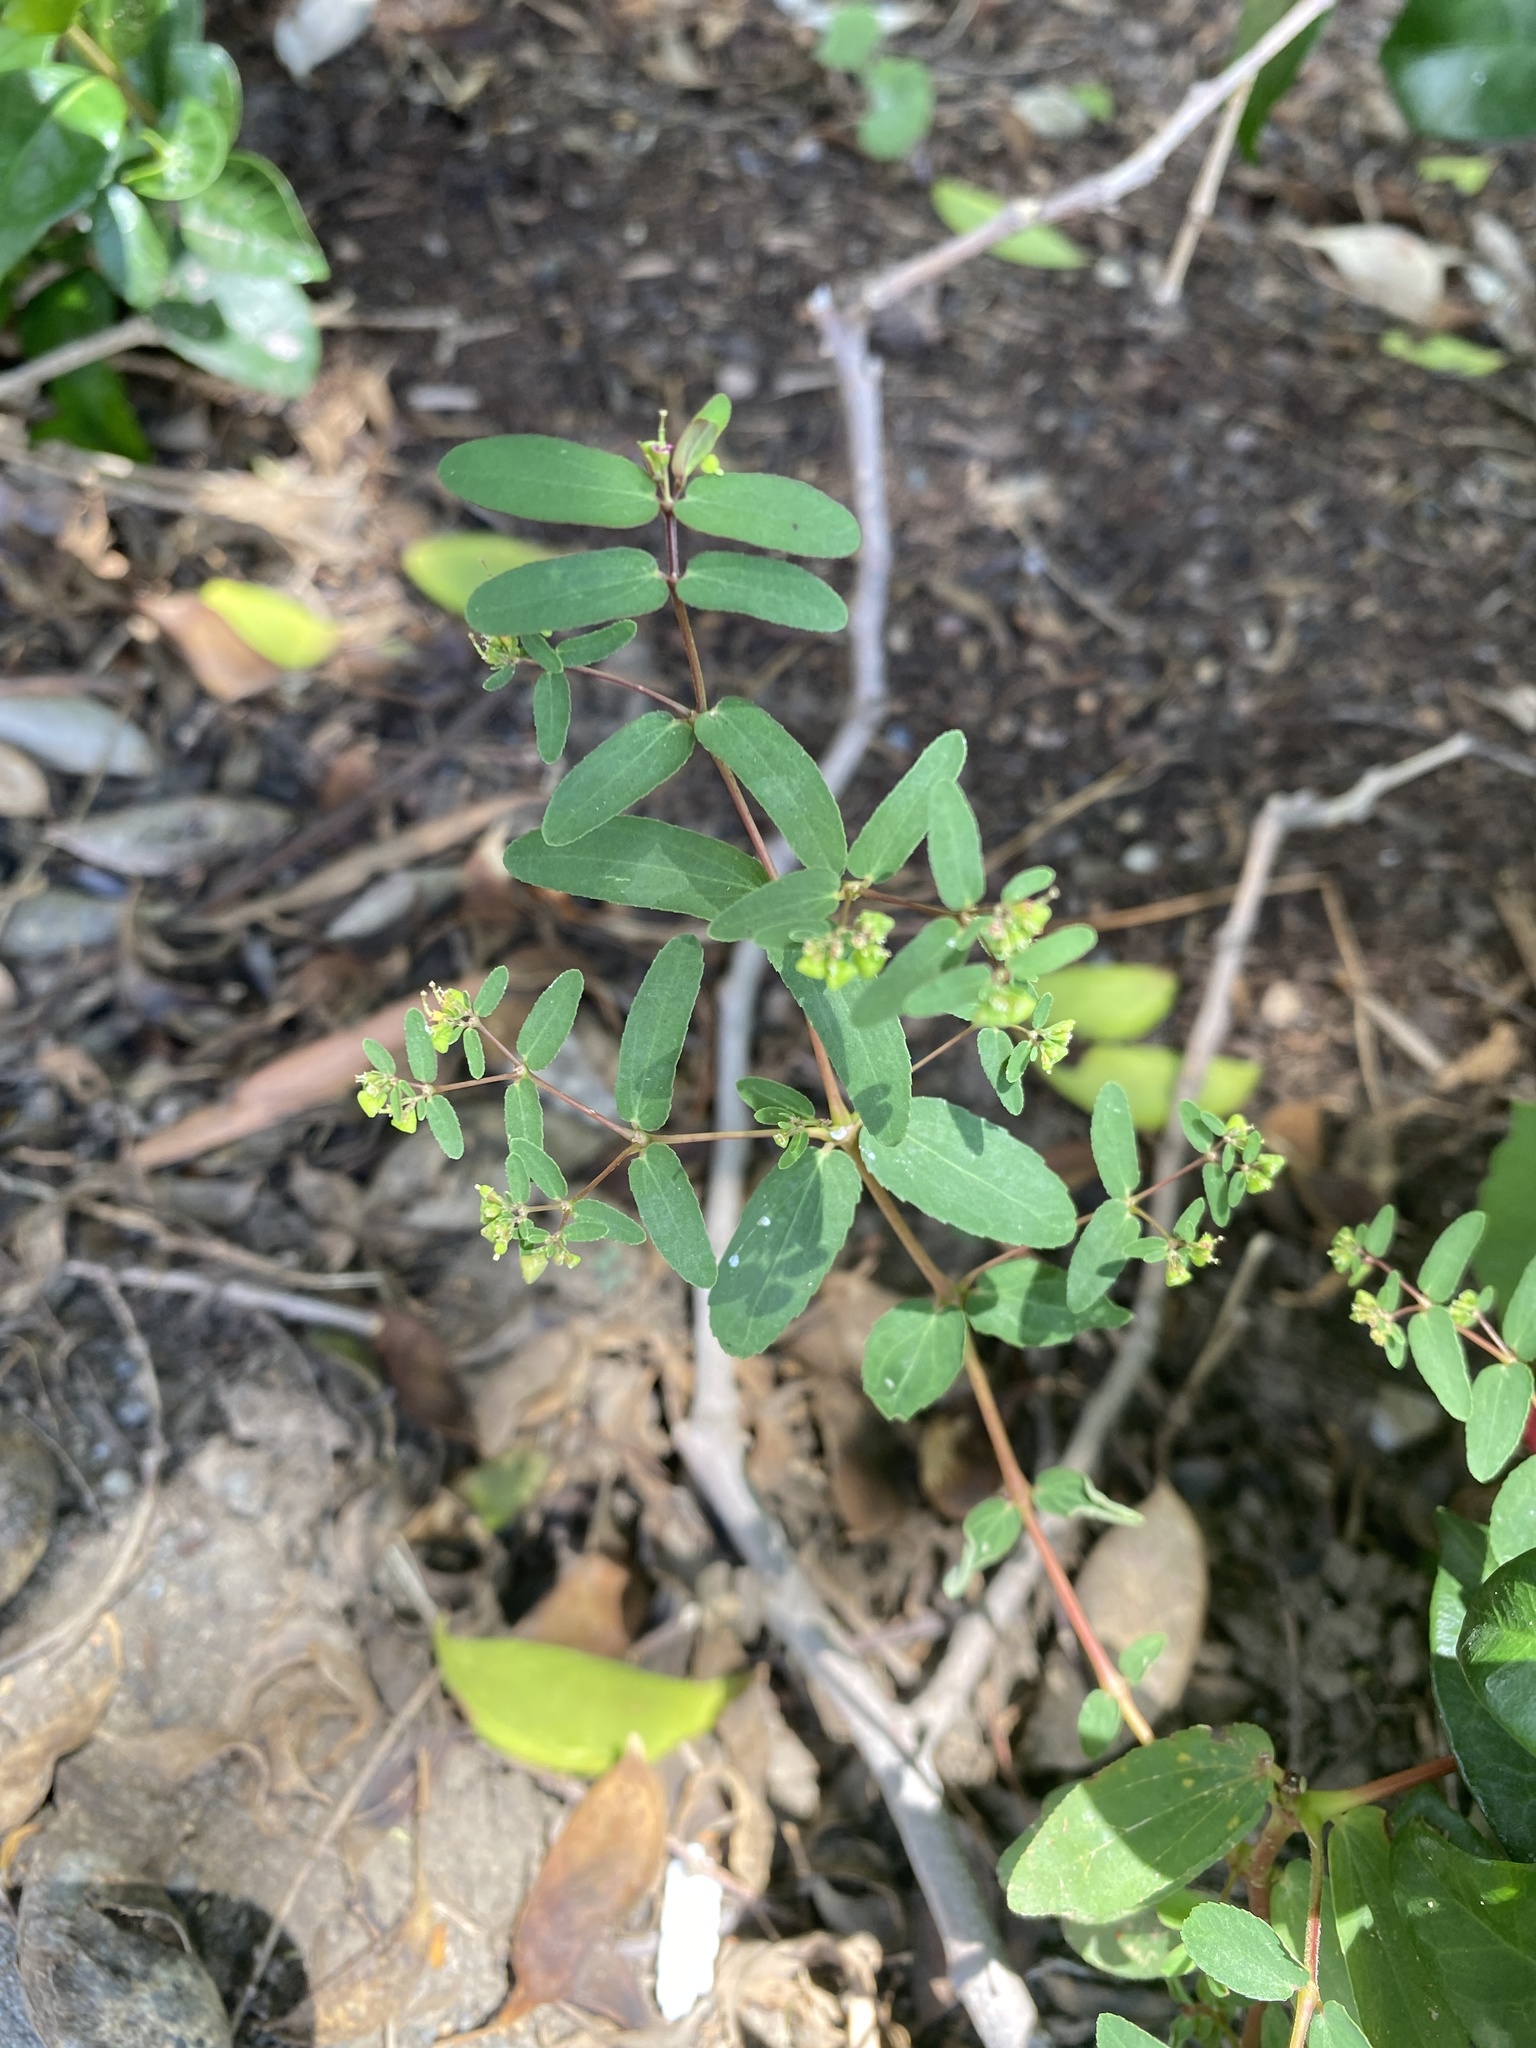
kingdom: Plantae
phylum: Tracheophyta
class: Magnoliopsida
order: Malpighiales
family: Euphorbiaceae
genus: Euphorbia
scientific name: Euphorbia hyssopifolia
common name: Hyssopleaf sandmat
